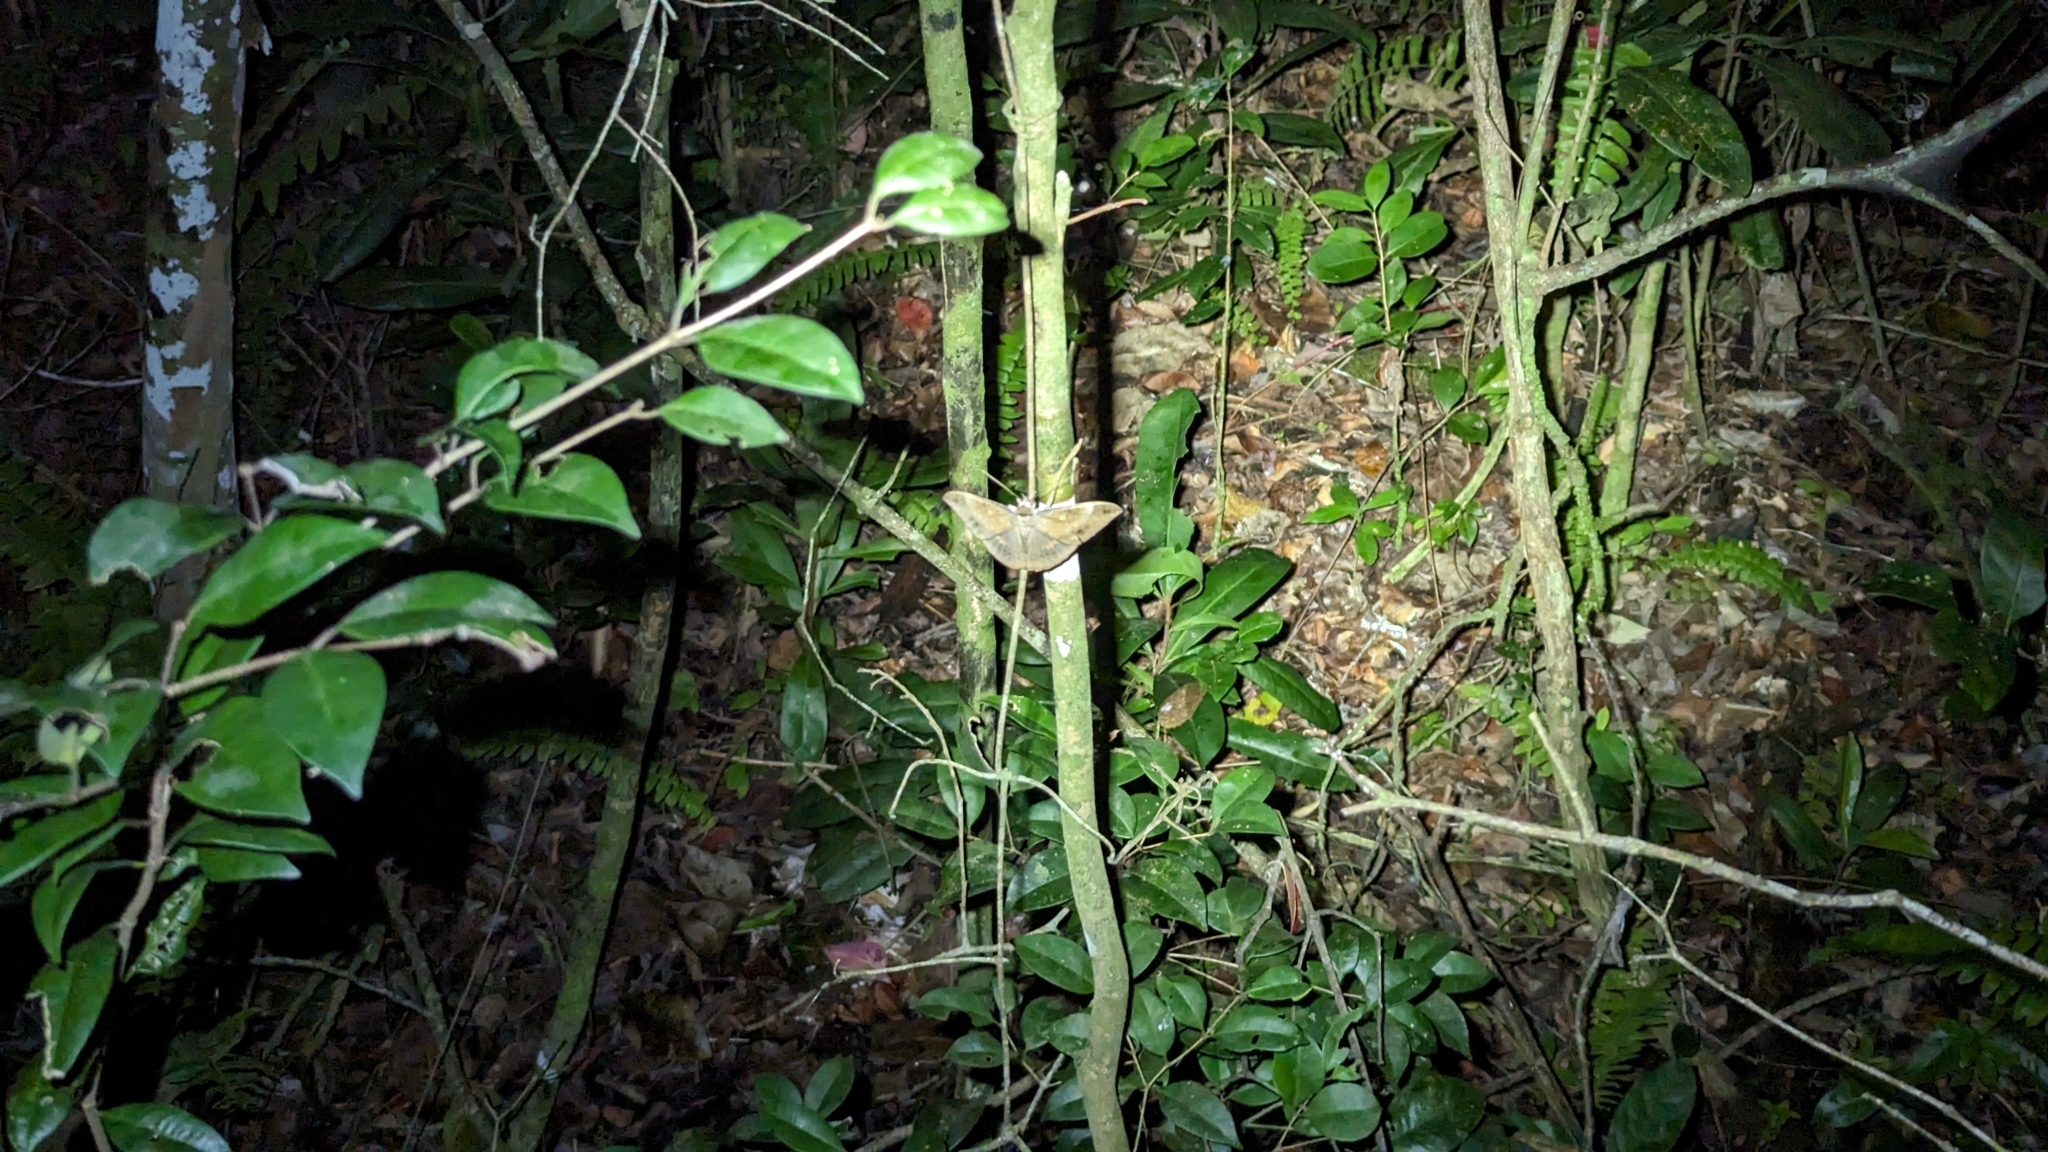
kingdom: Animalia
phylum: Arthropoda
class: Insecta
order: Lepidoptera
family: Erebidae
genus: Hemeroblemma
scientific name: Hemeroblemma opigena
